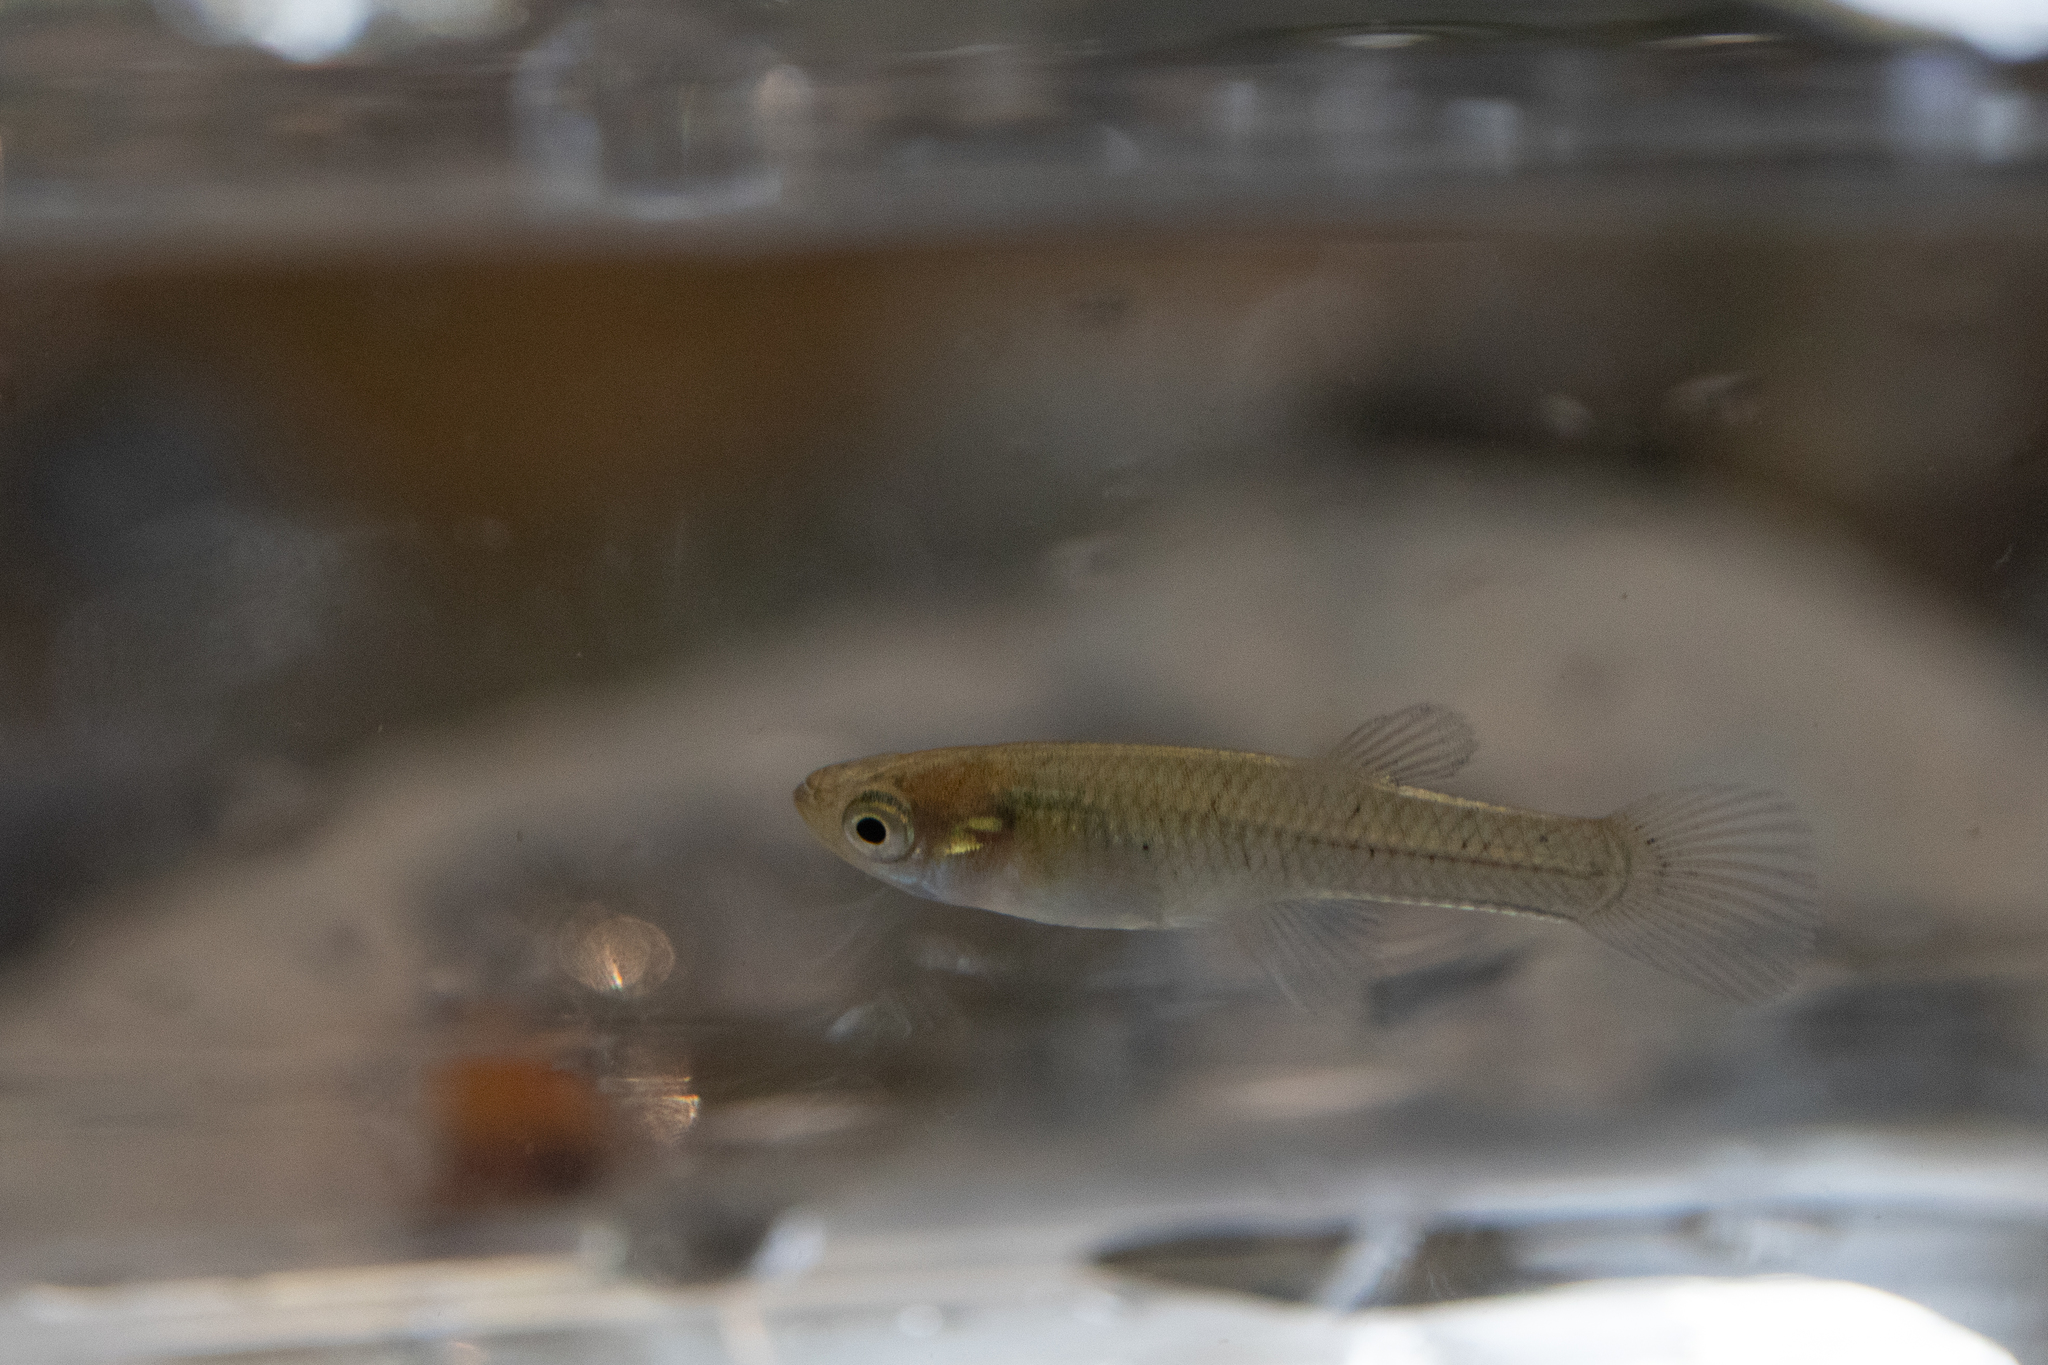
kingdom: Animalia
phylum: Chordata
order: Cyprinodontiformes
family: Poeciliidae
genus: Gambusia
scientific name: Gambusia holbrooki
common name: Eastern mosquitofish
